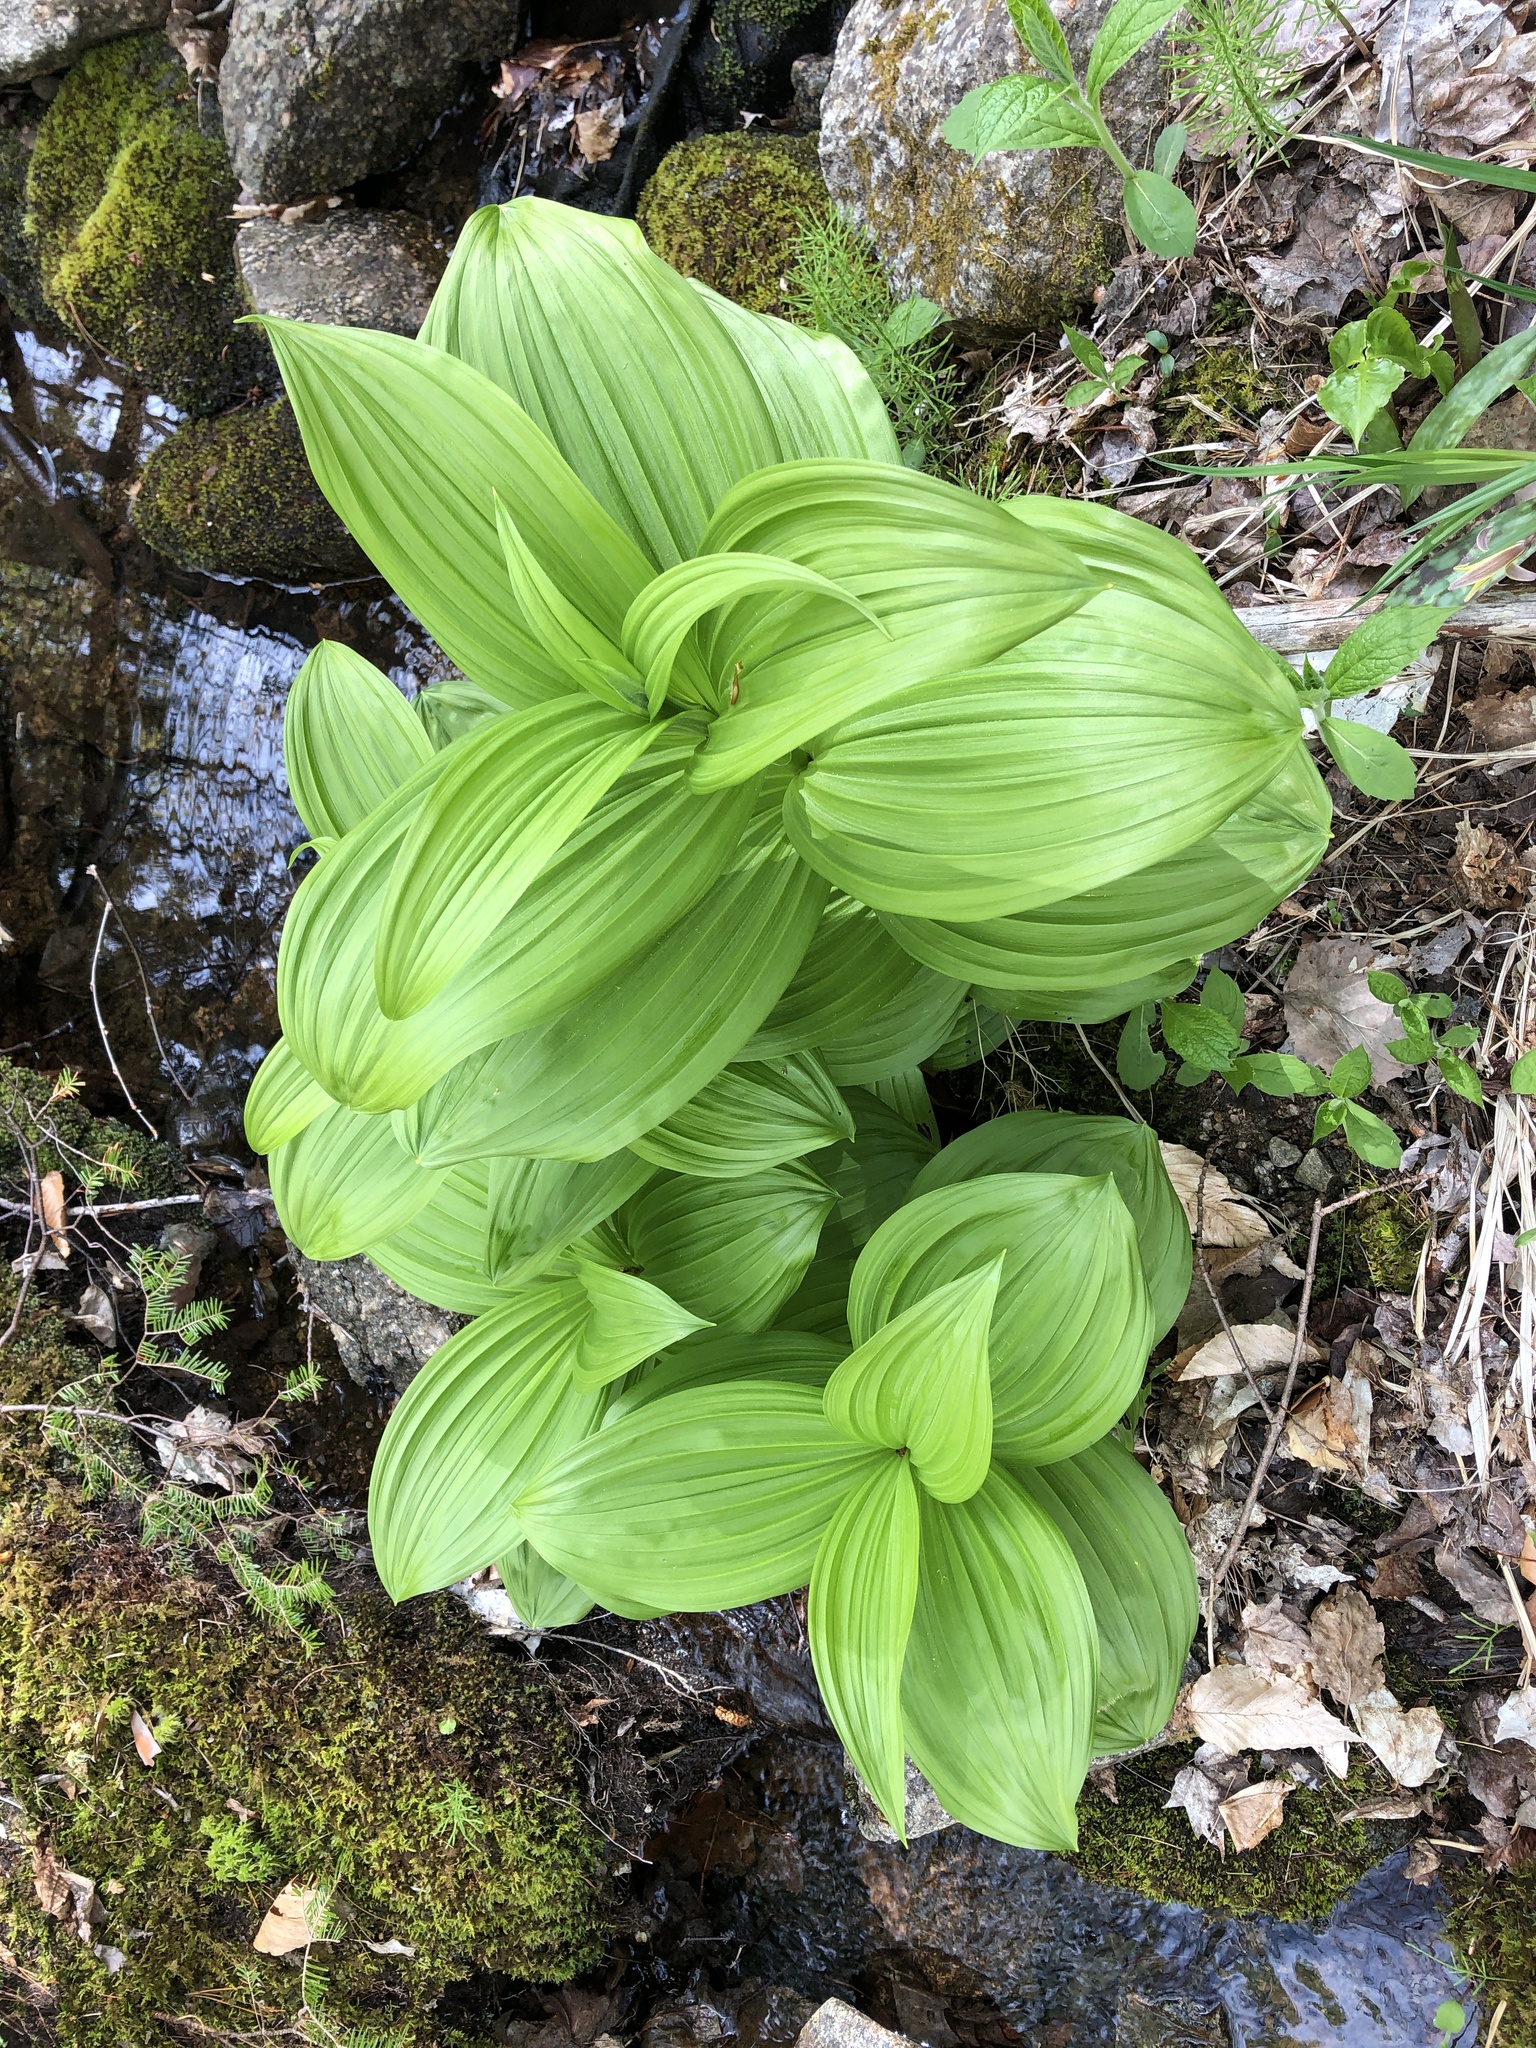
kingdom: Plantae
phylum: Tracheophyta
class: Liliopsida
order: Liliales
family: Melanthiaceae
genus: Veratrum
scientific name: Veratrum viride
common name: American false hellebore
